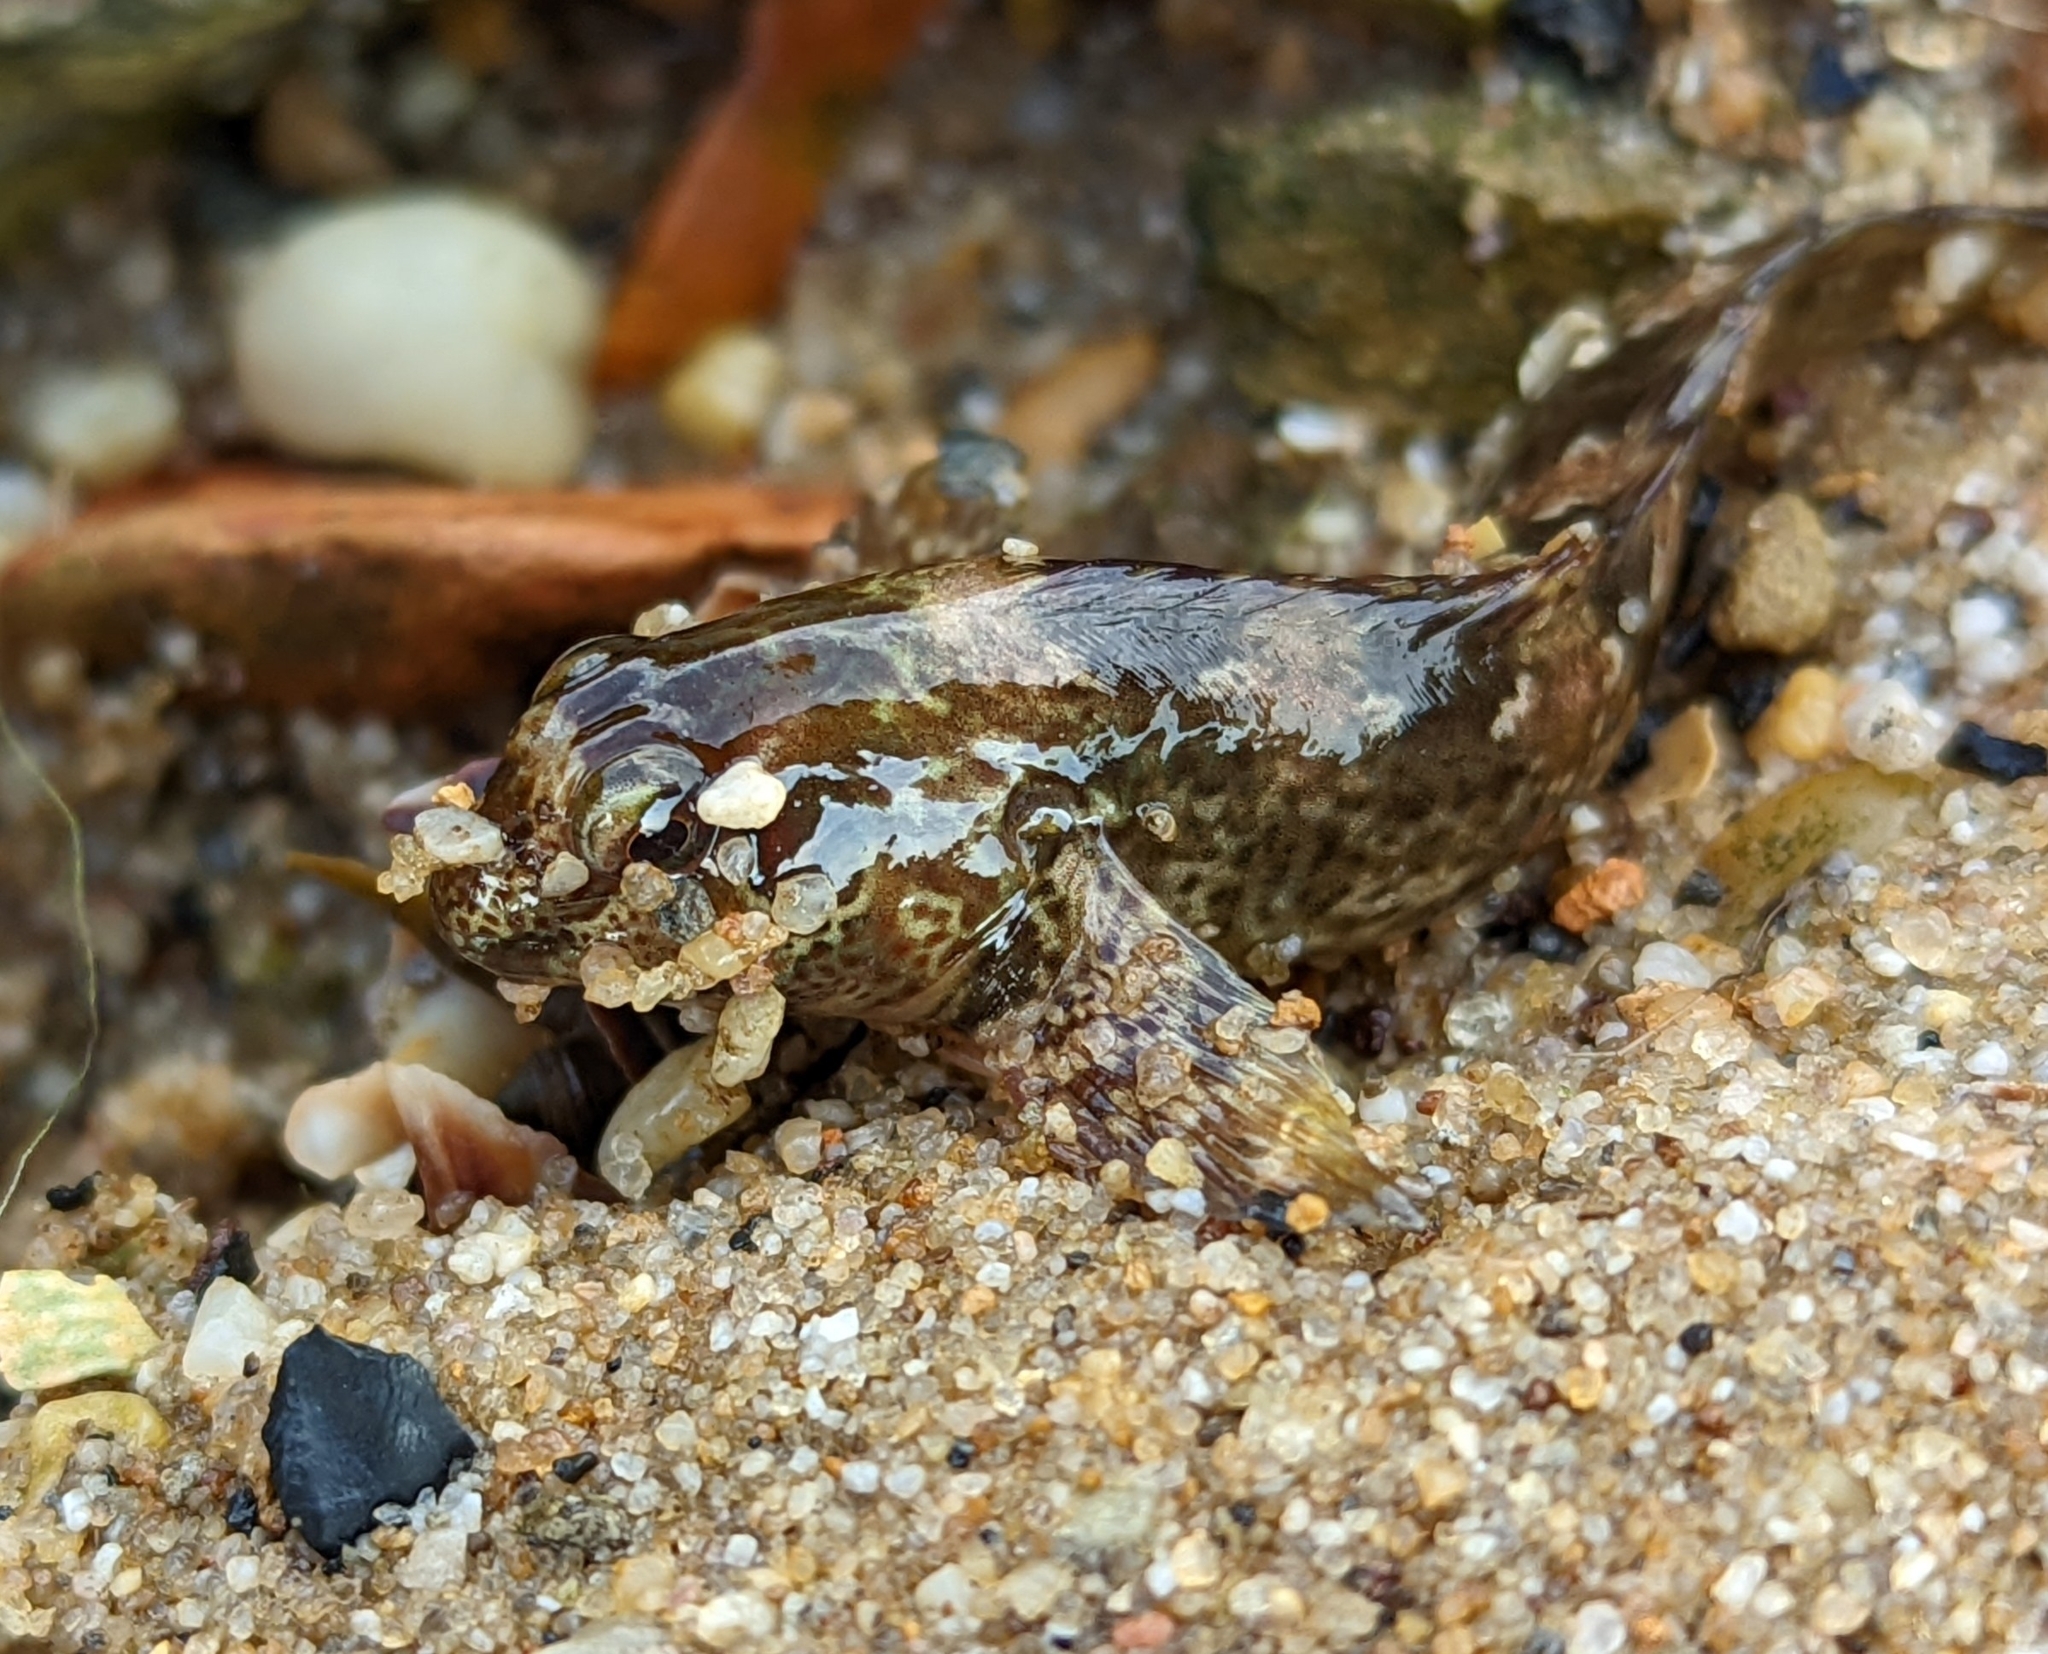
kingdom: Animalia
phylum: Chordata
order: Perciformes
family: Blenniidae
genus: Lipophrys
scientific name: Lipophrys pholis
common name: Shanny
